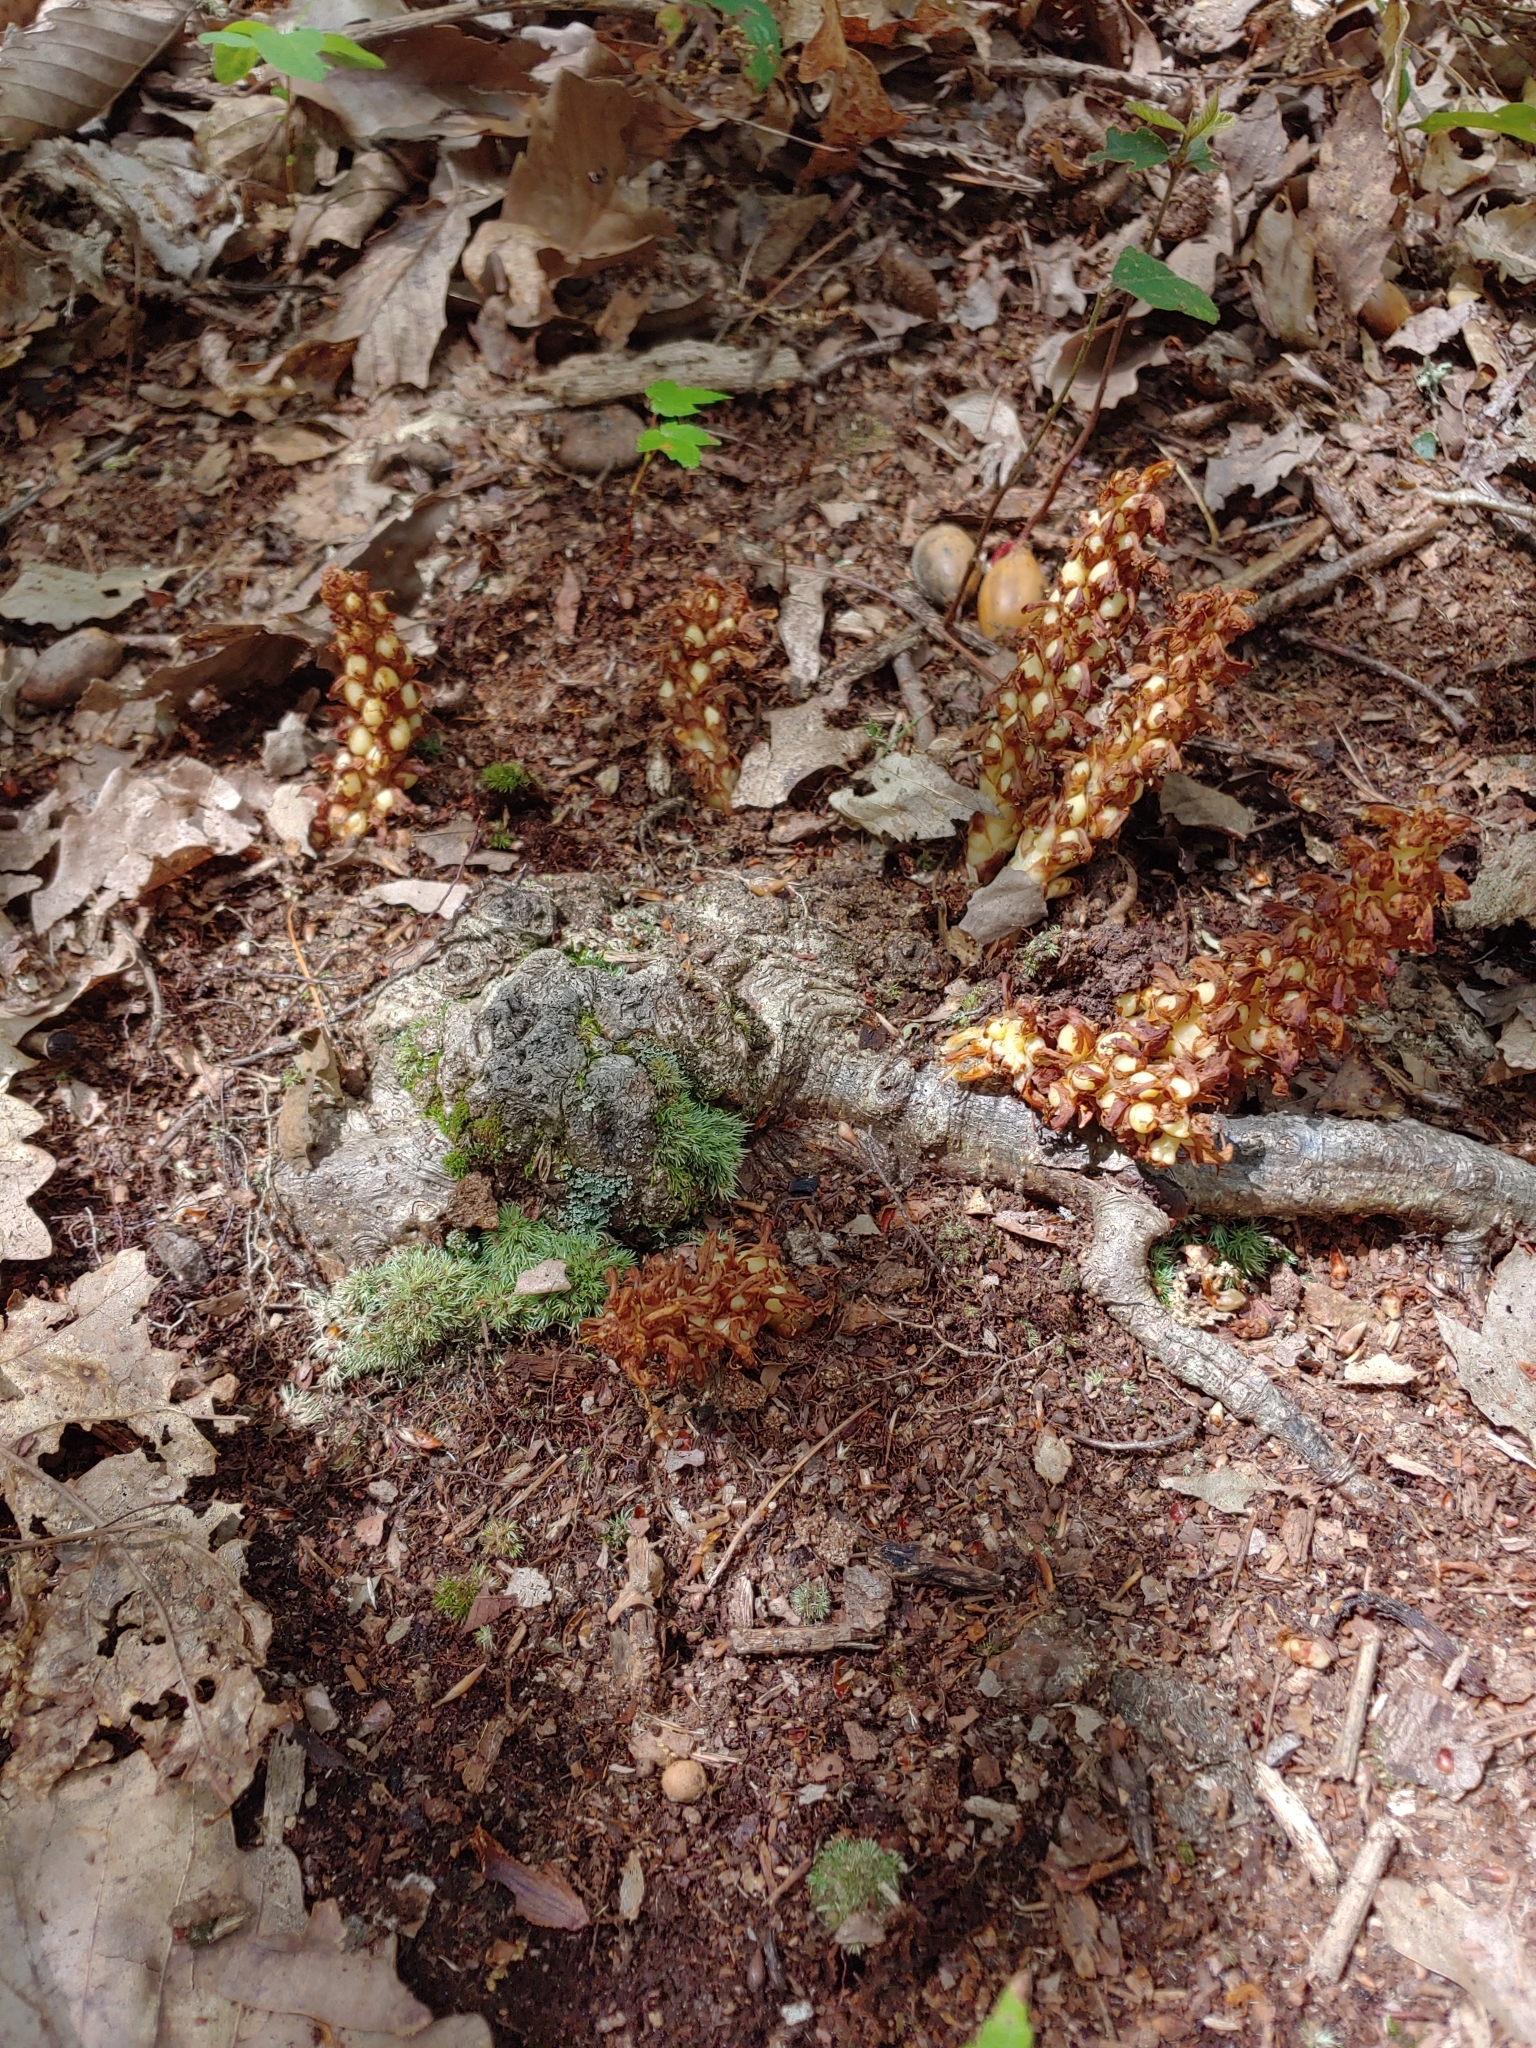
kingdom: Plantae
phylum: Tracheophyta
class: Magnoliopsida
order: Lamiales
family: Orobanchaceae
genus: Conopholis
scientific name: Conopholis americana
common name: American cancer-root
